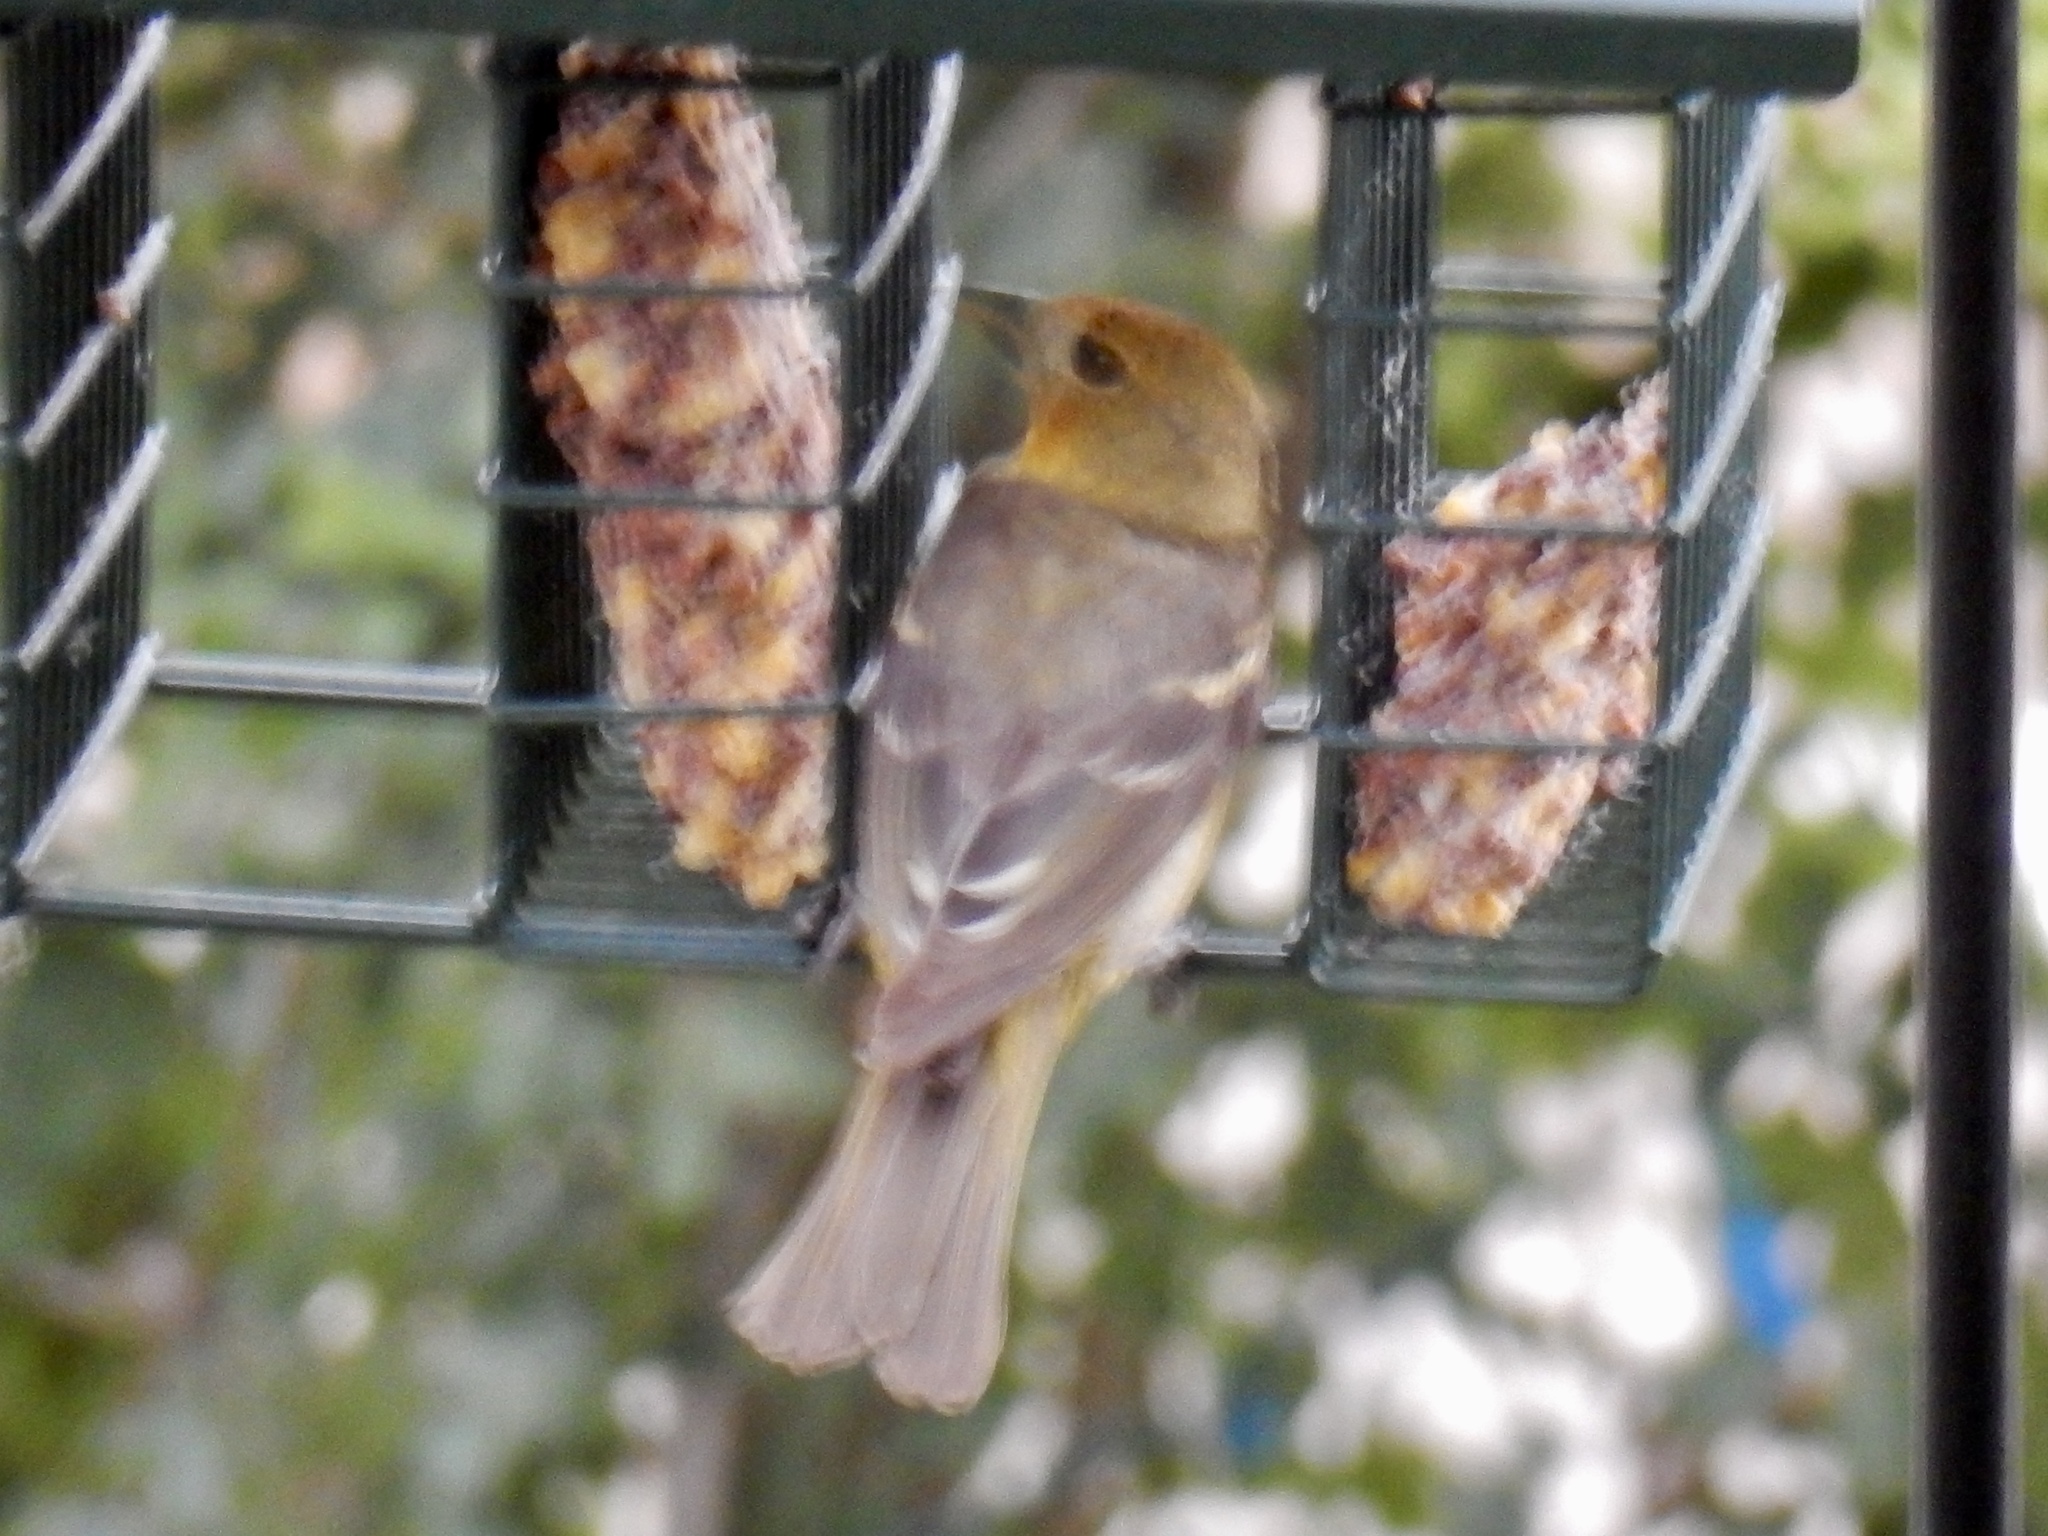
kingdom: Animalia
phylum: Chordata
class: Aves
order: Passeriformes
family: Cardinalidae
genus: Piranga
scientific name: Piranga ludoviciana
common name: Western tanager
